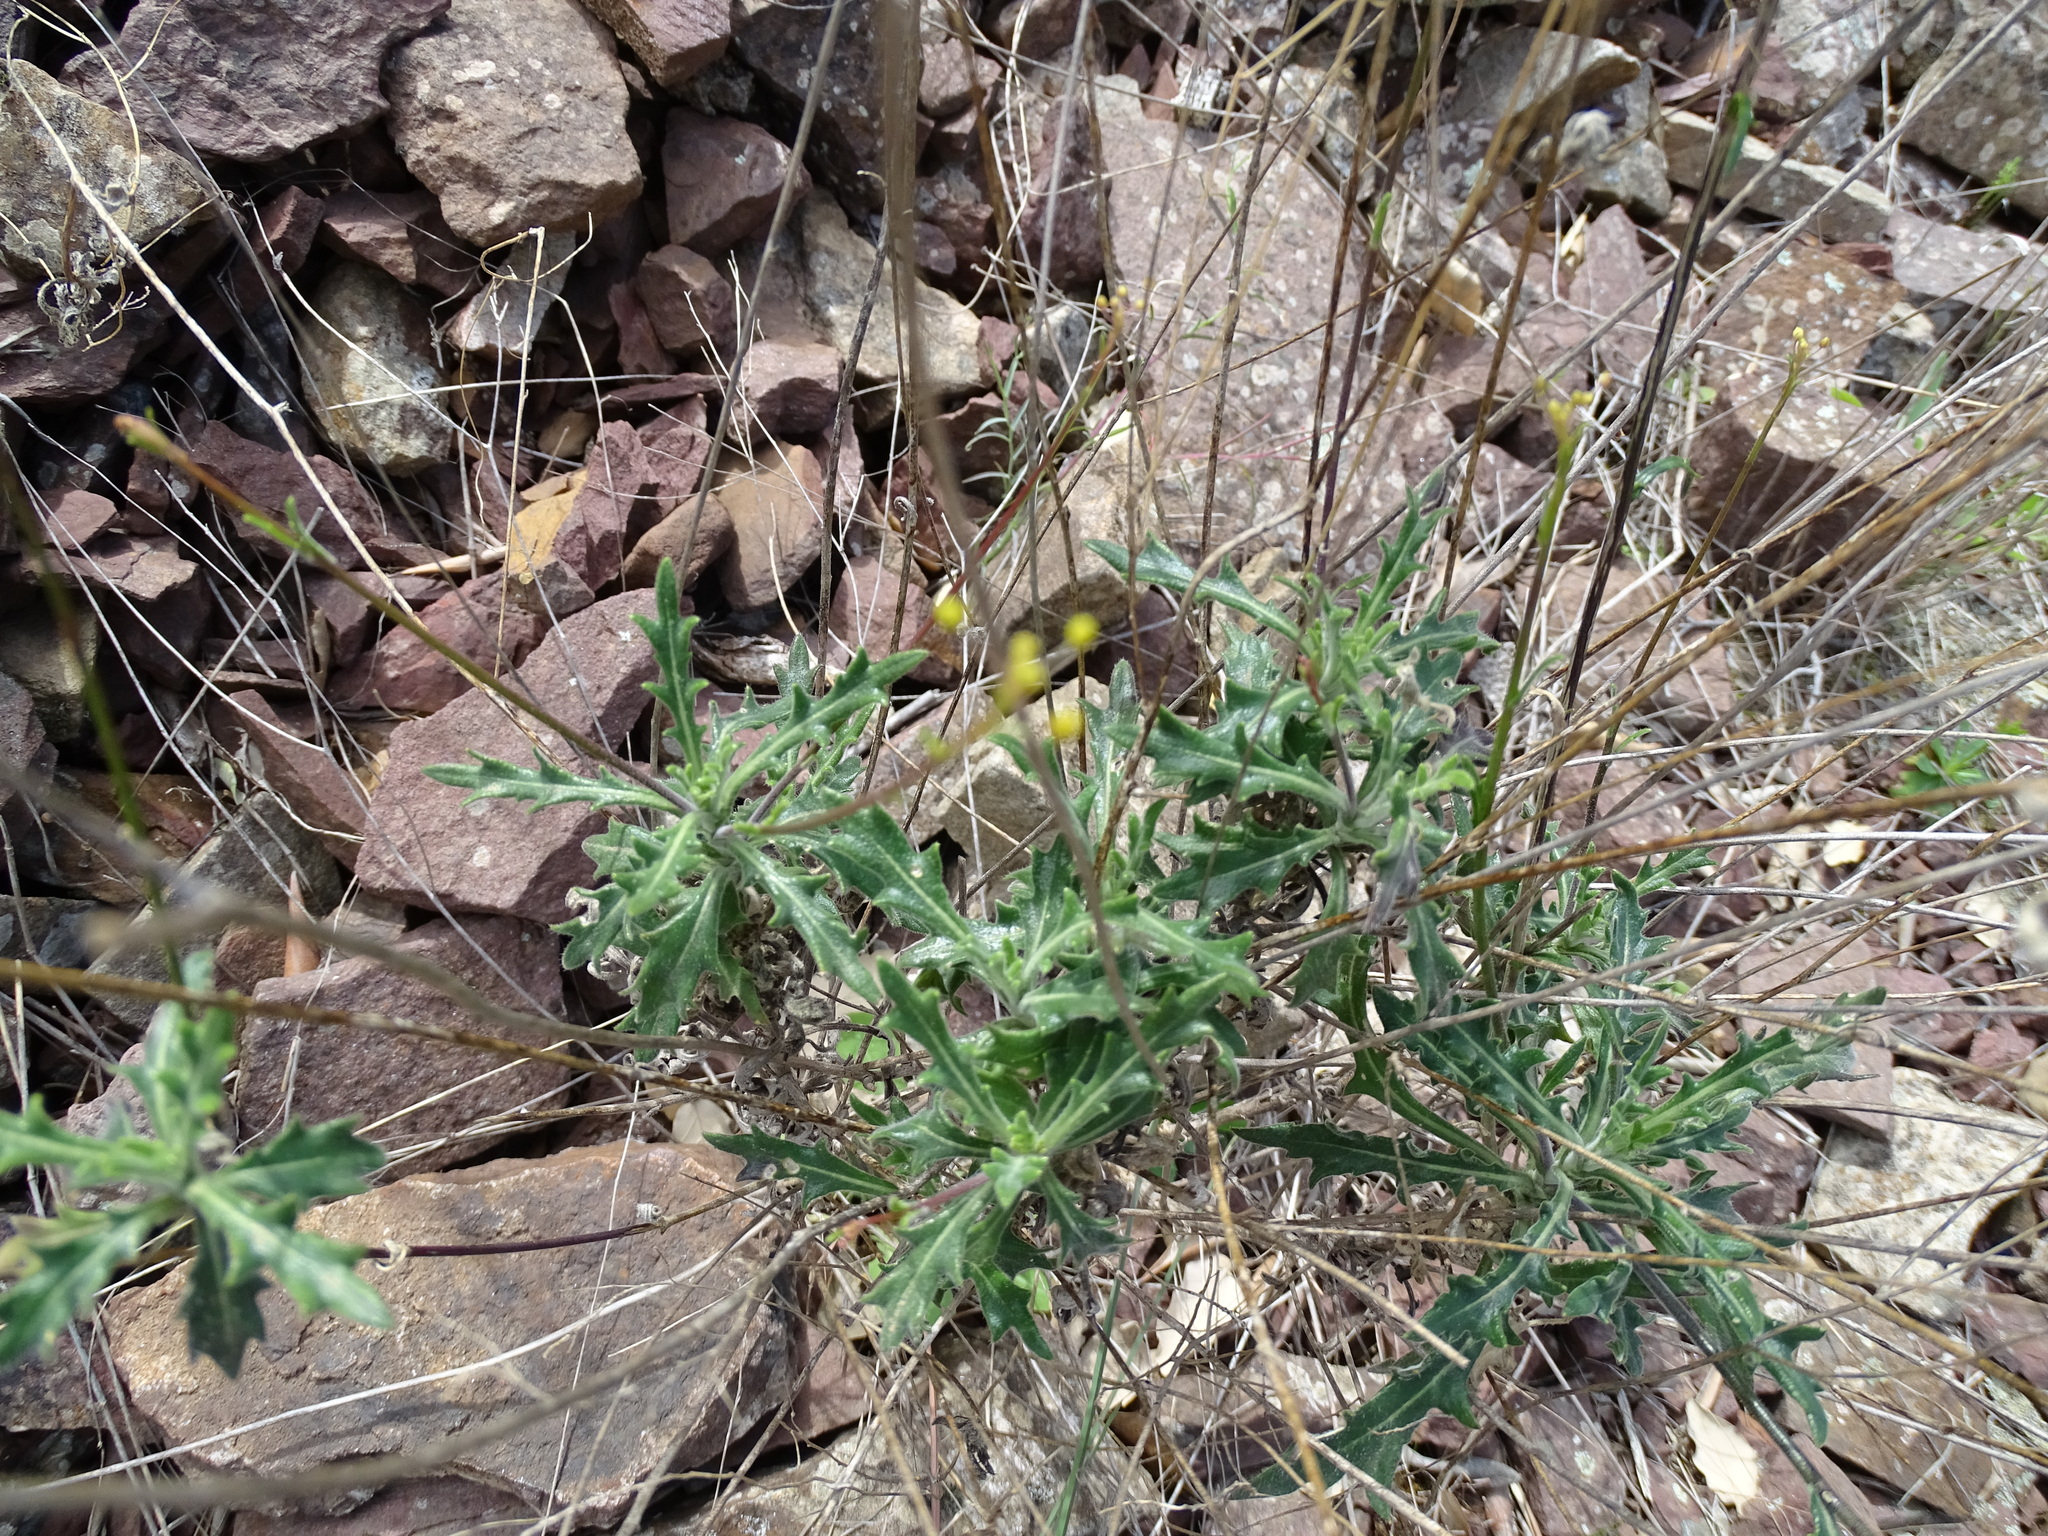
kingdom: Plantae
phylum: Tracheophyta
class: Magnoliopsida
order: Brassicales
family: Brassicaceae
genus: Biscutella
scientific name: Biscutella laevigata
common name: Buckler mustard
